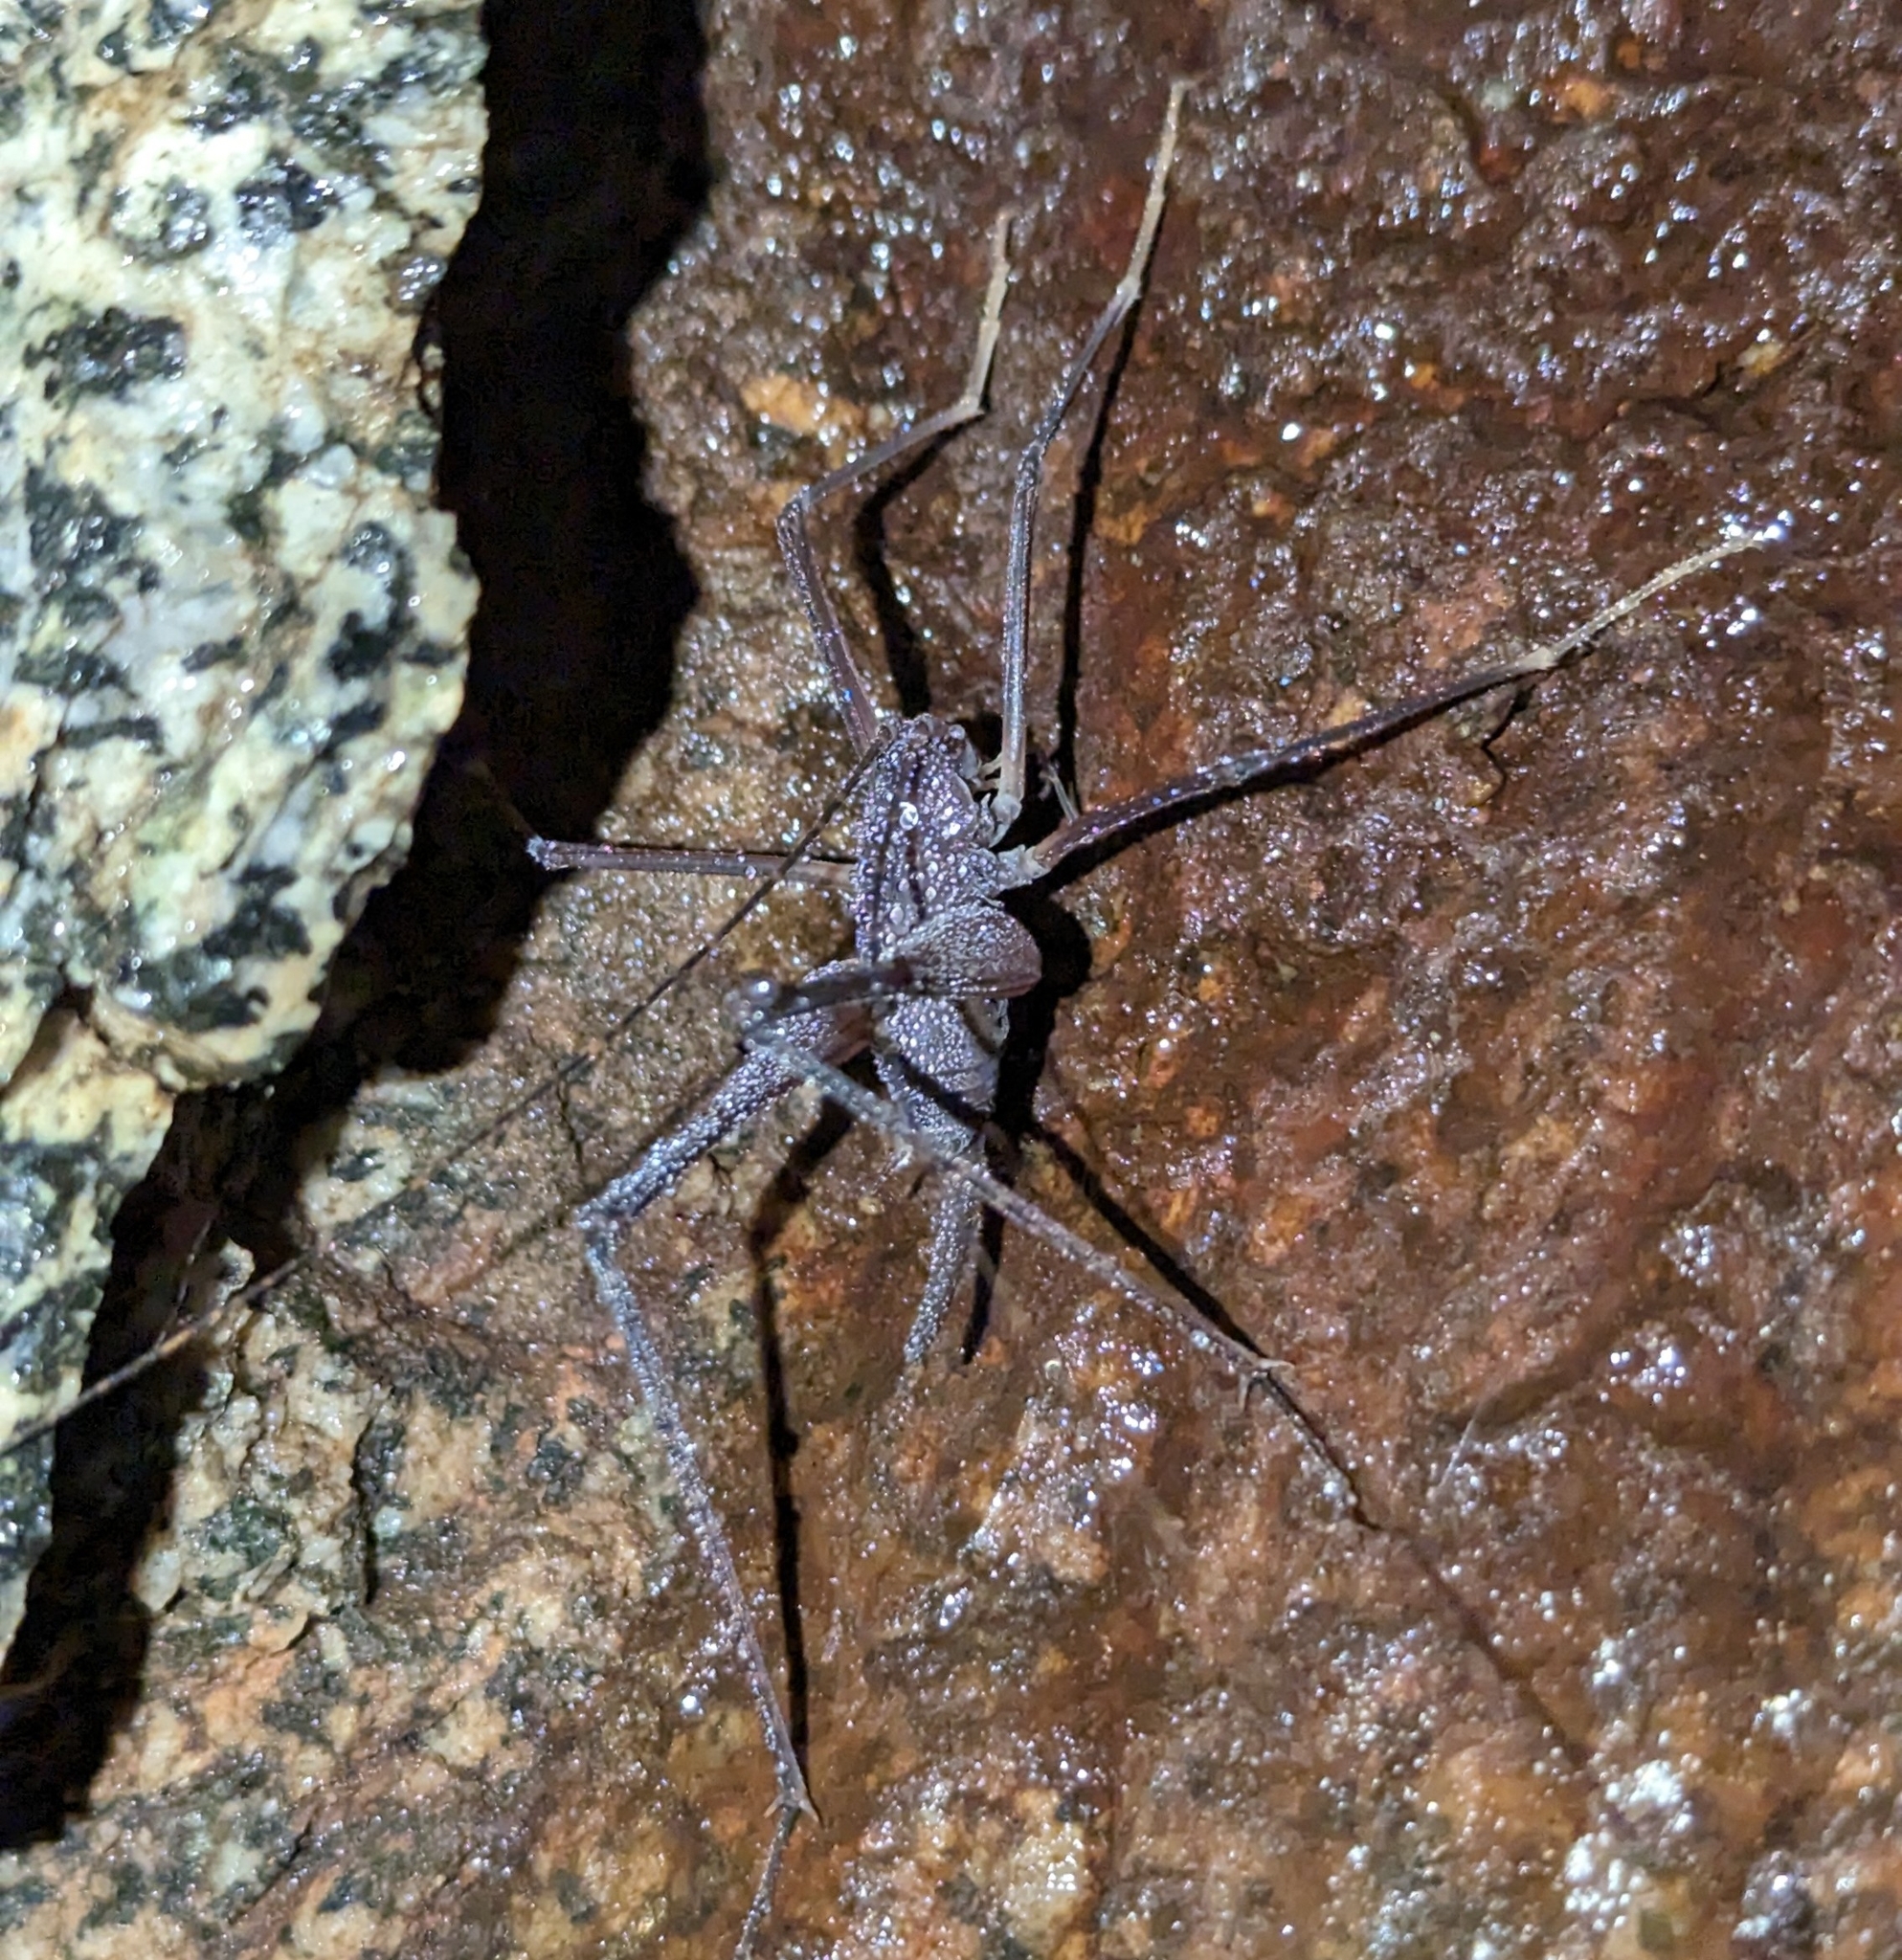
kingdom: Animalia
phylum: Arthropoda
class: Insecta
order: Orthoptera
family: Rhaphidophoridae
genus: Tropidischia
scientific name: Tropidischia xanthostoma
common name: Square-legged camel cricket
